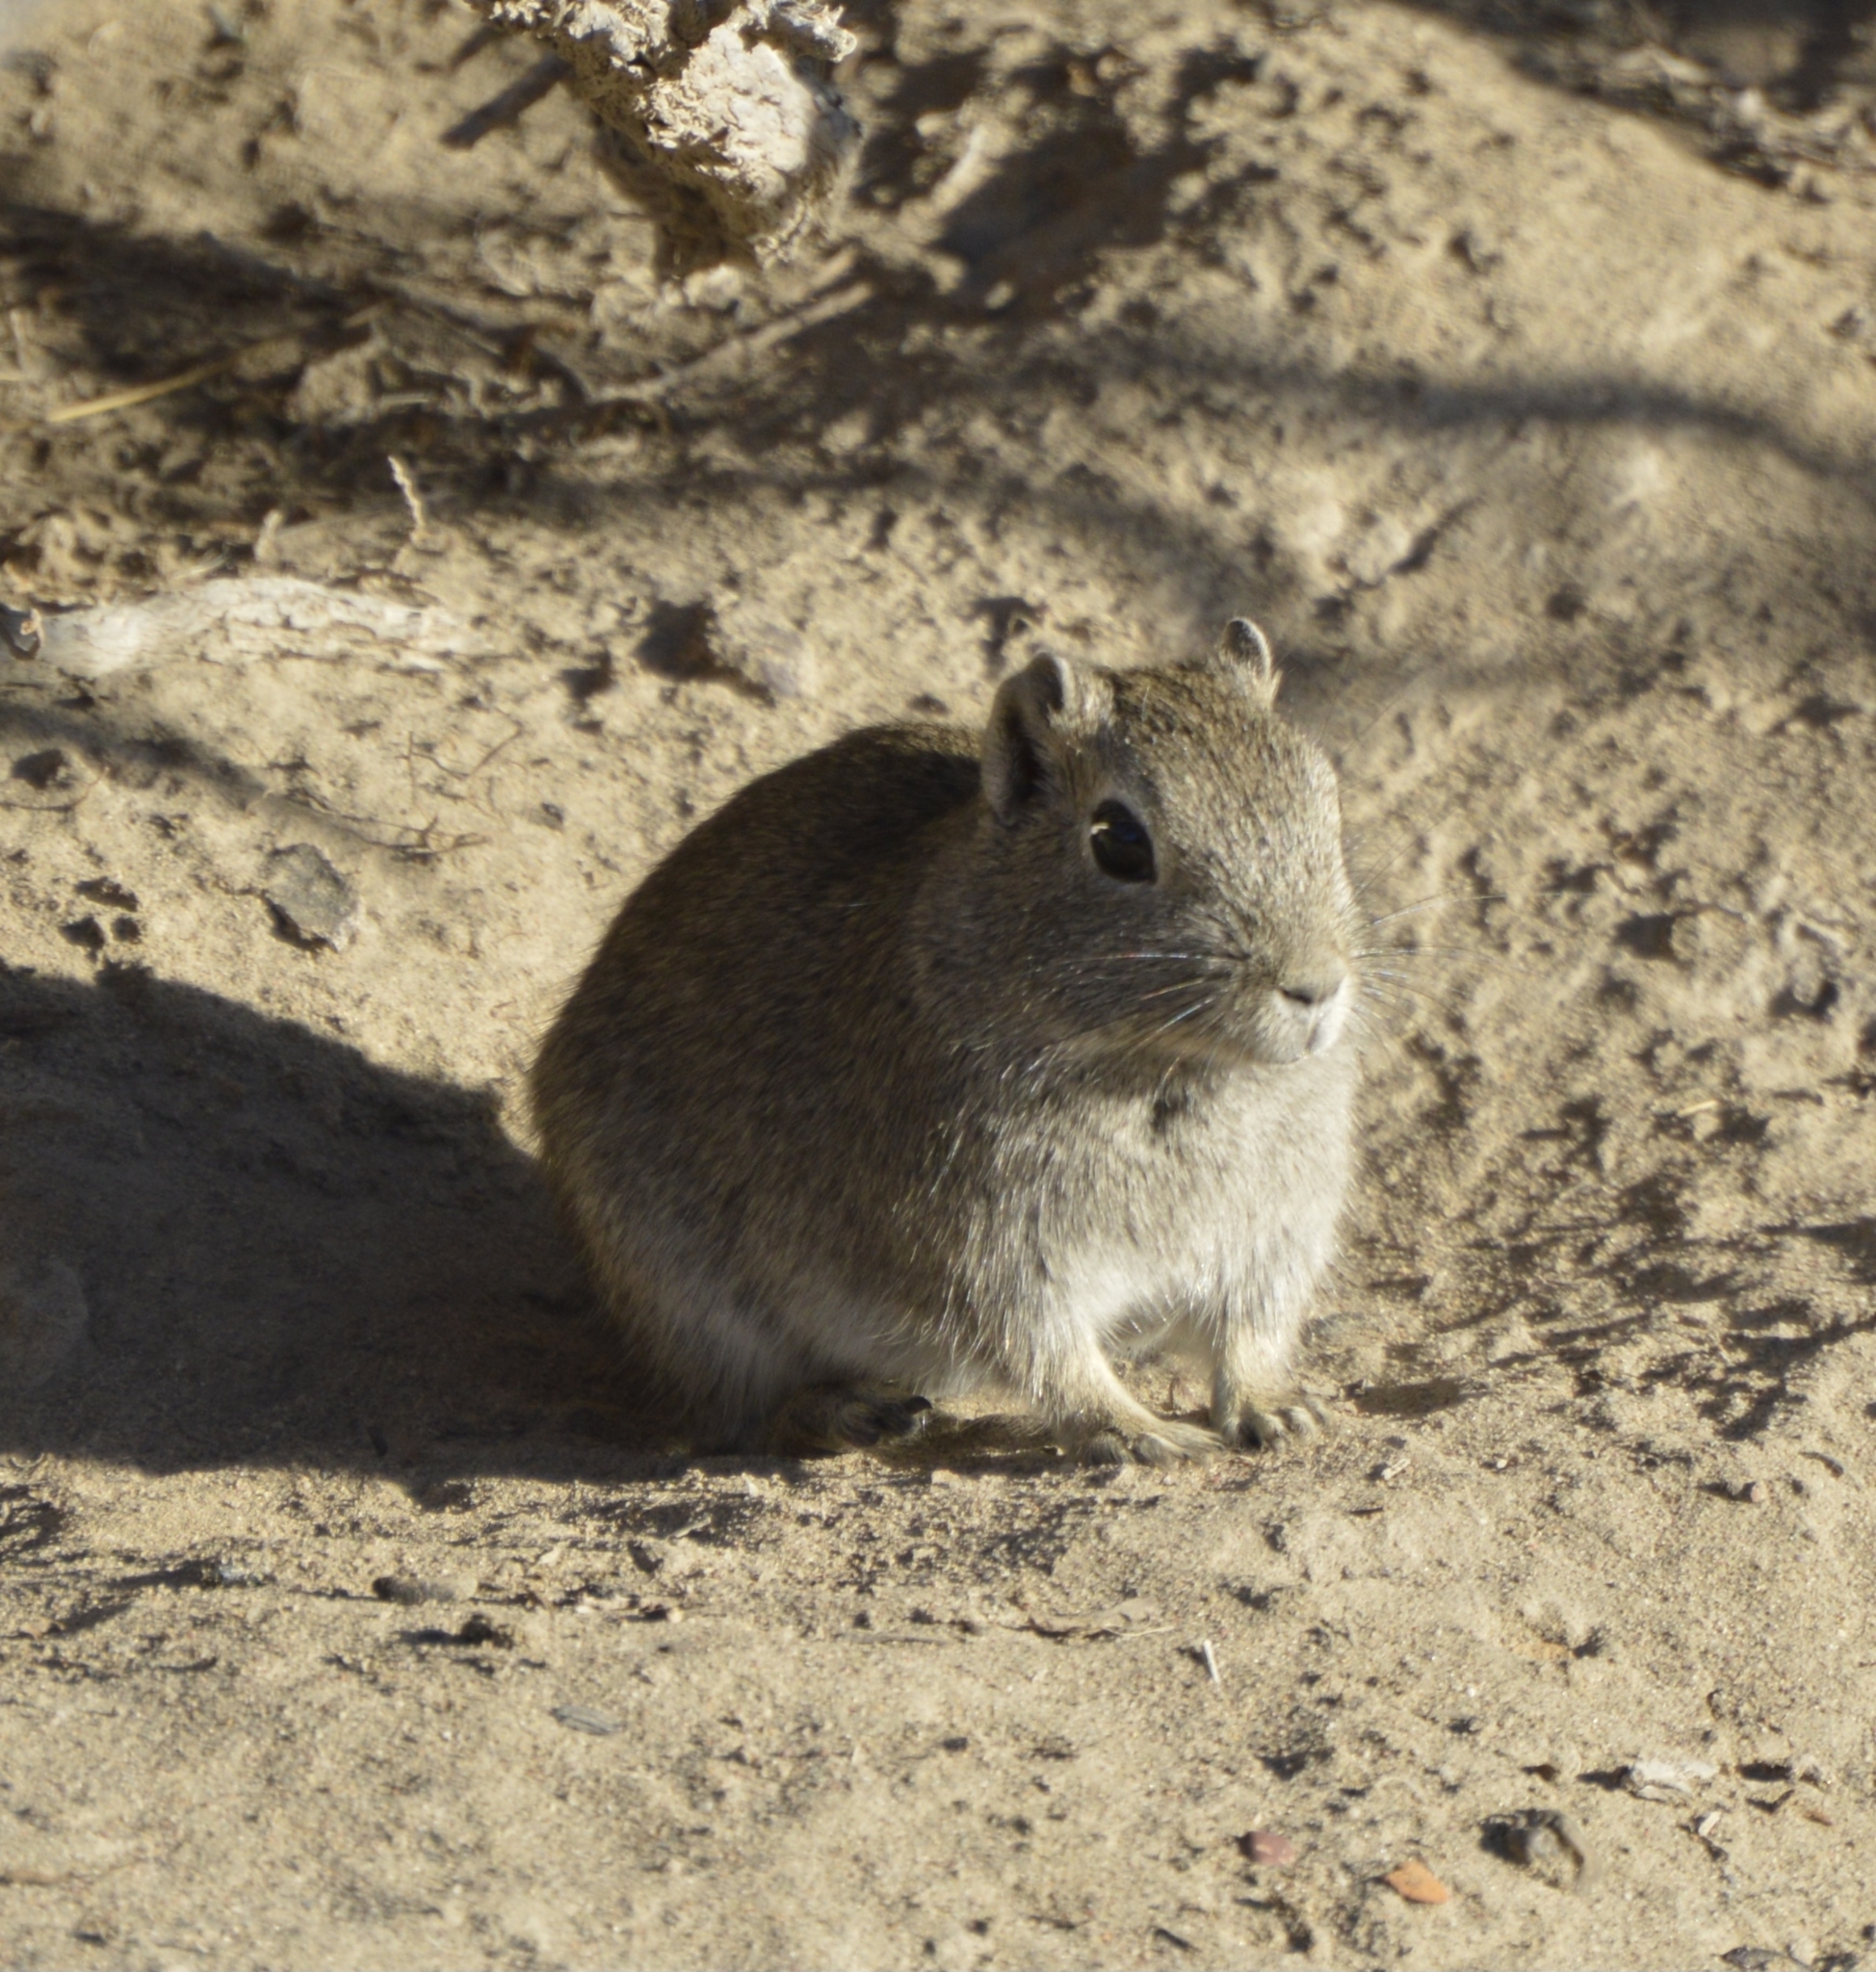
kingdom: Animalia
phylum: Chordata
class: Mammalia
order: Rodentia
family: Caviidae
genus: Microcavia
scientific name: Microcavia australis
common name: Southern mountain cavy
